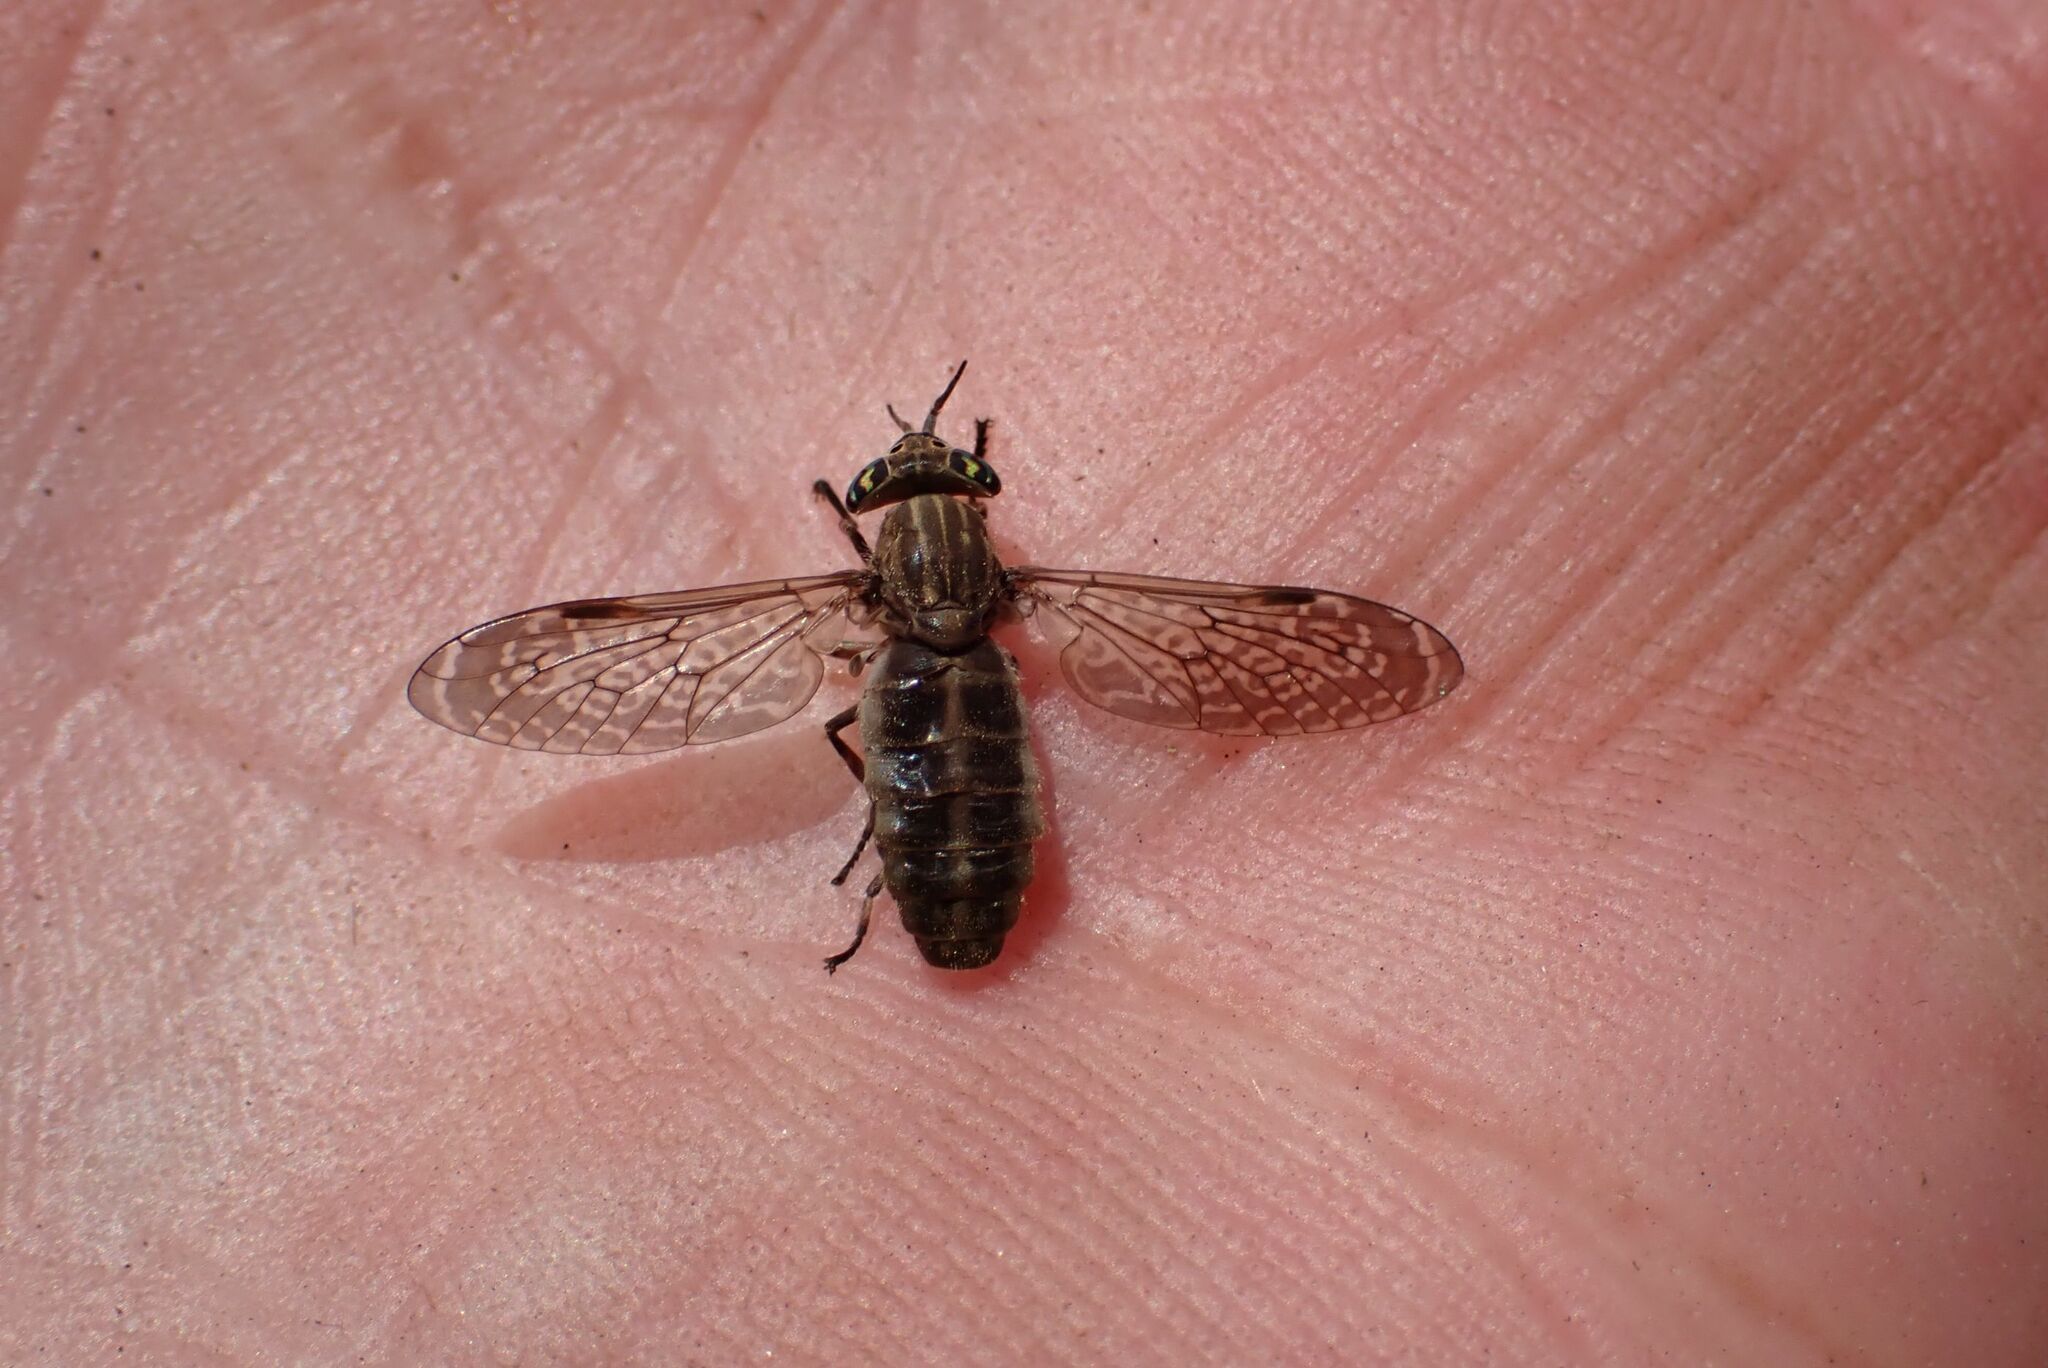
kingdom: Animalia
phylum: Arthropoda
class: Insecta
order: Diptera
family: Tabanidae
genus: Haematopota
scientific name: Haematopota circumscripta
